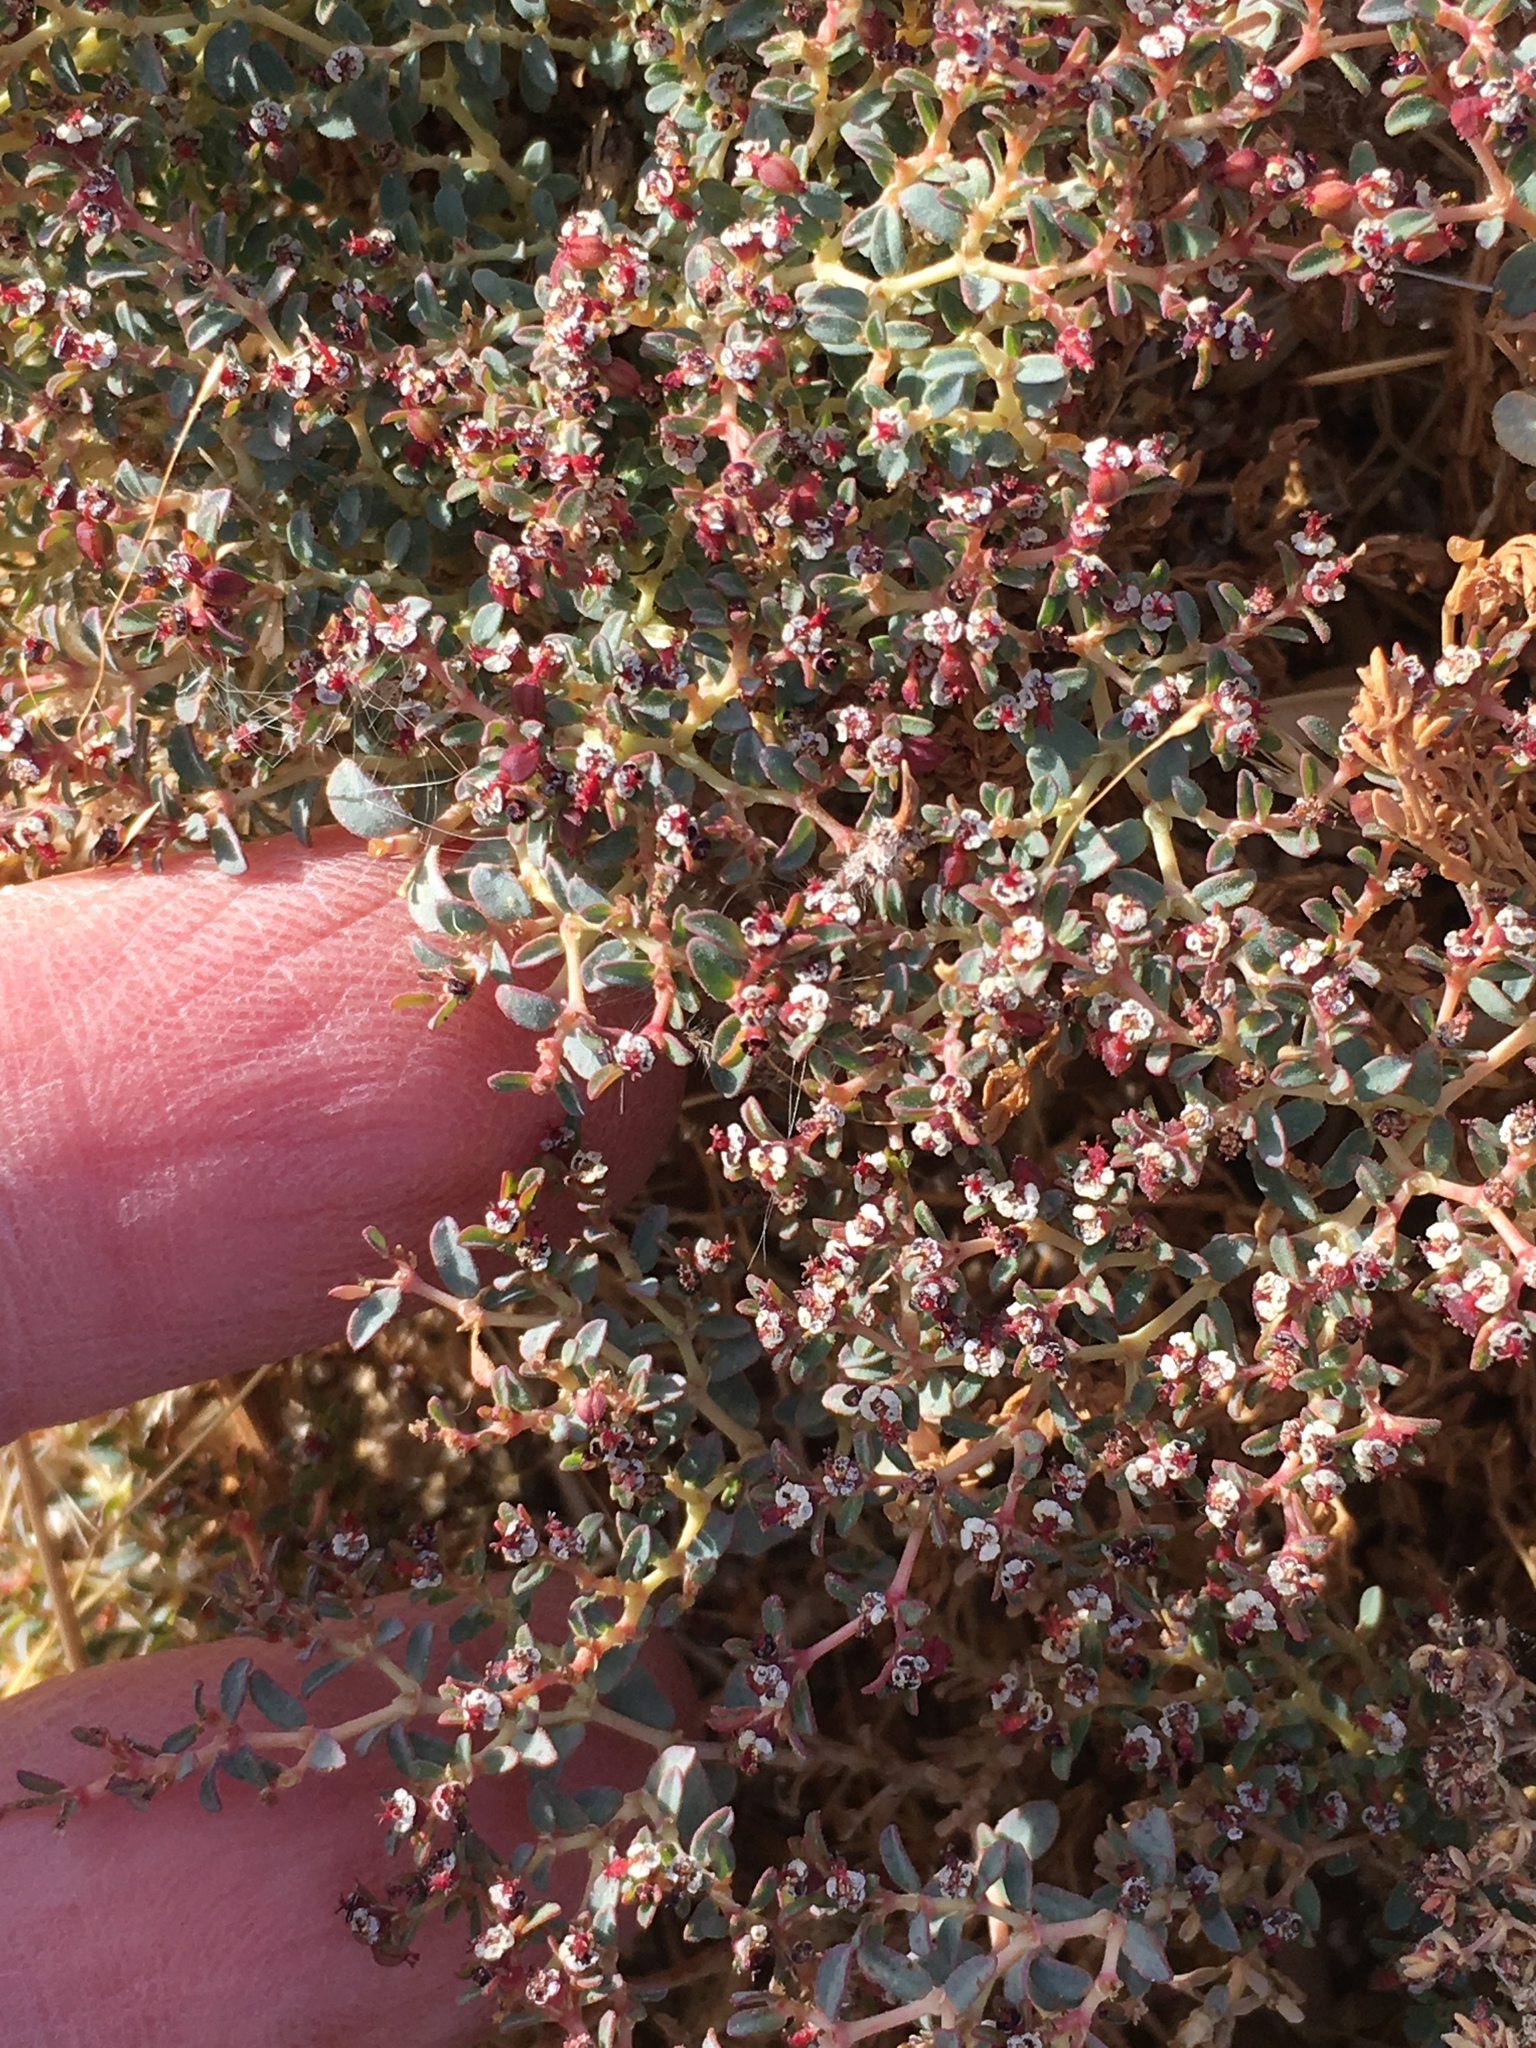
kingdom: Plantae
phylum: Tracheophyta
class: Magnoliopsida
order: Malpighiales
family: Euphorbiaceae
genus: Euphorbia
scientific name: Euphorbia polycarpa
